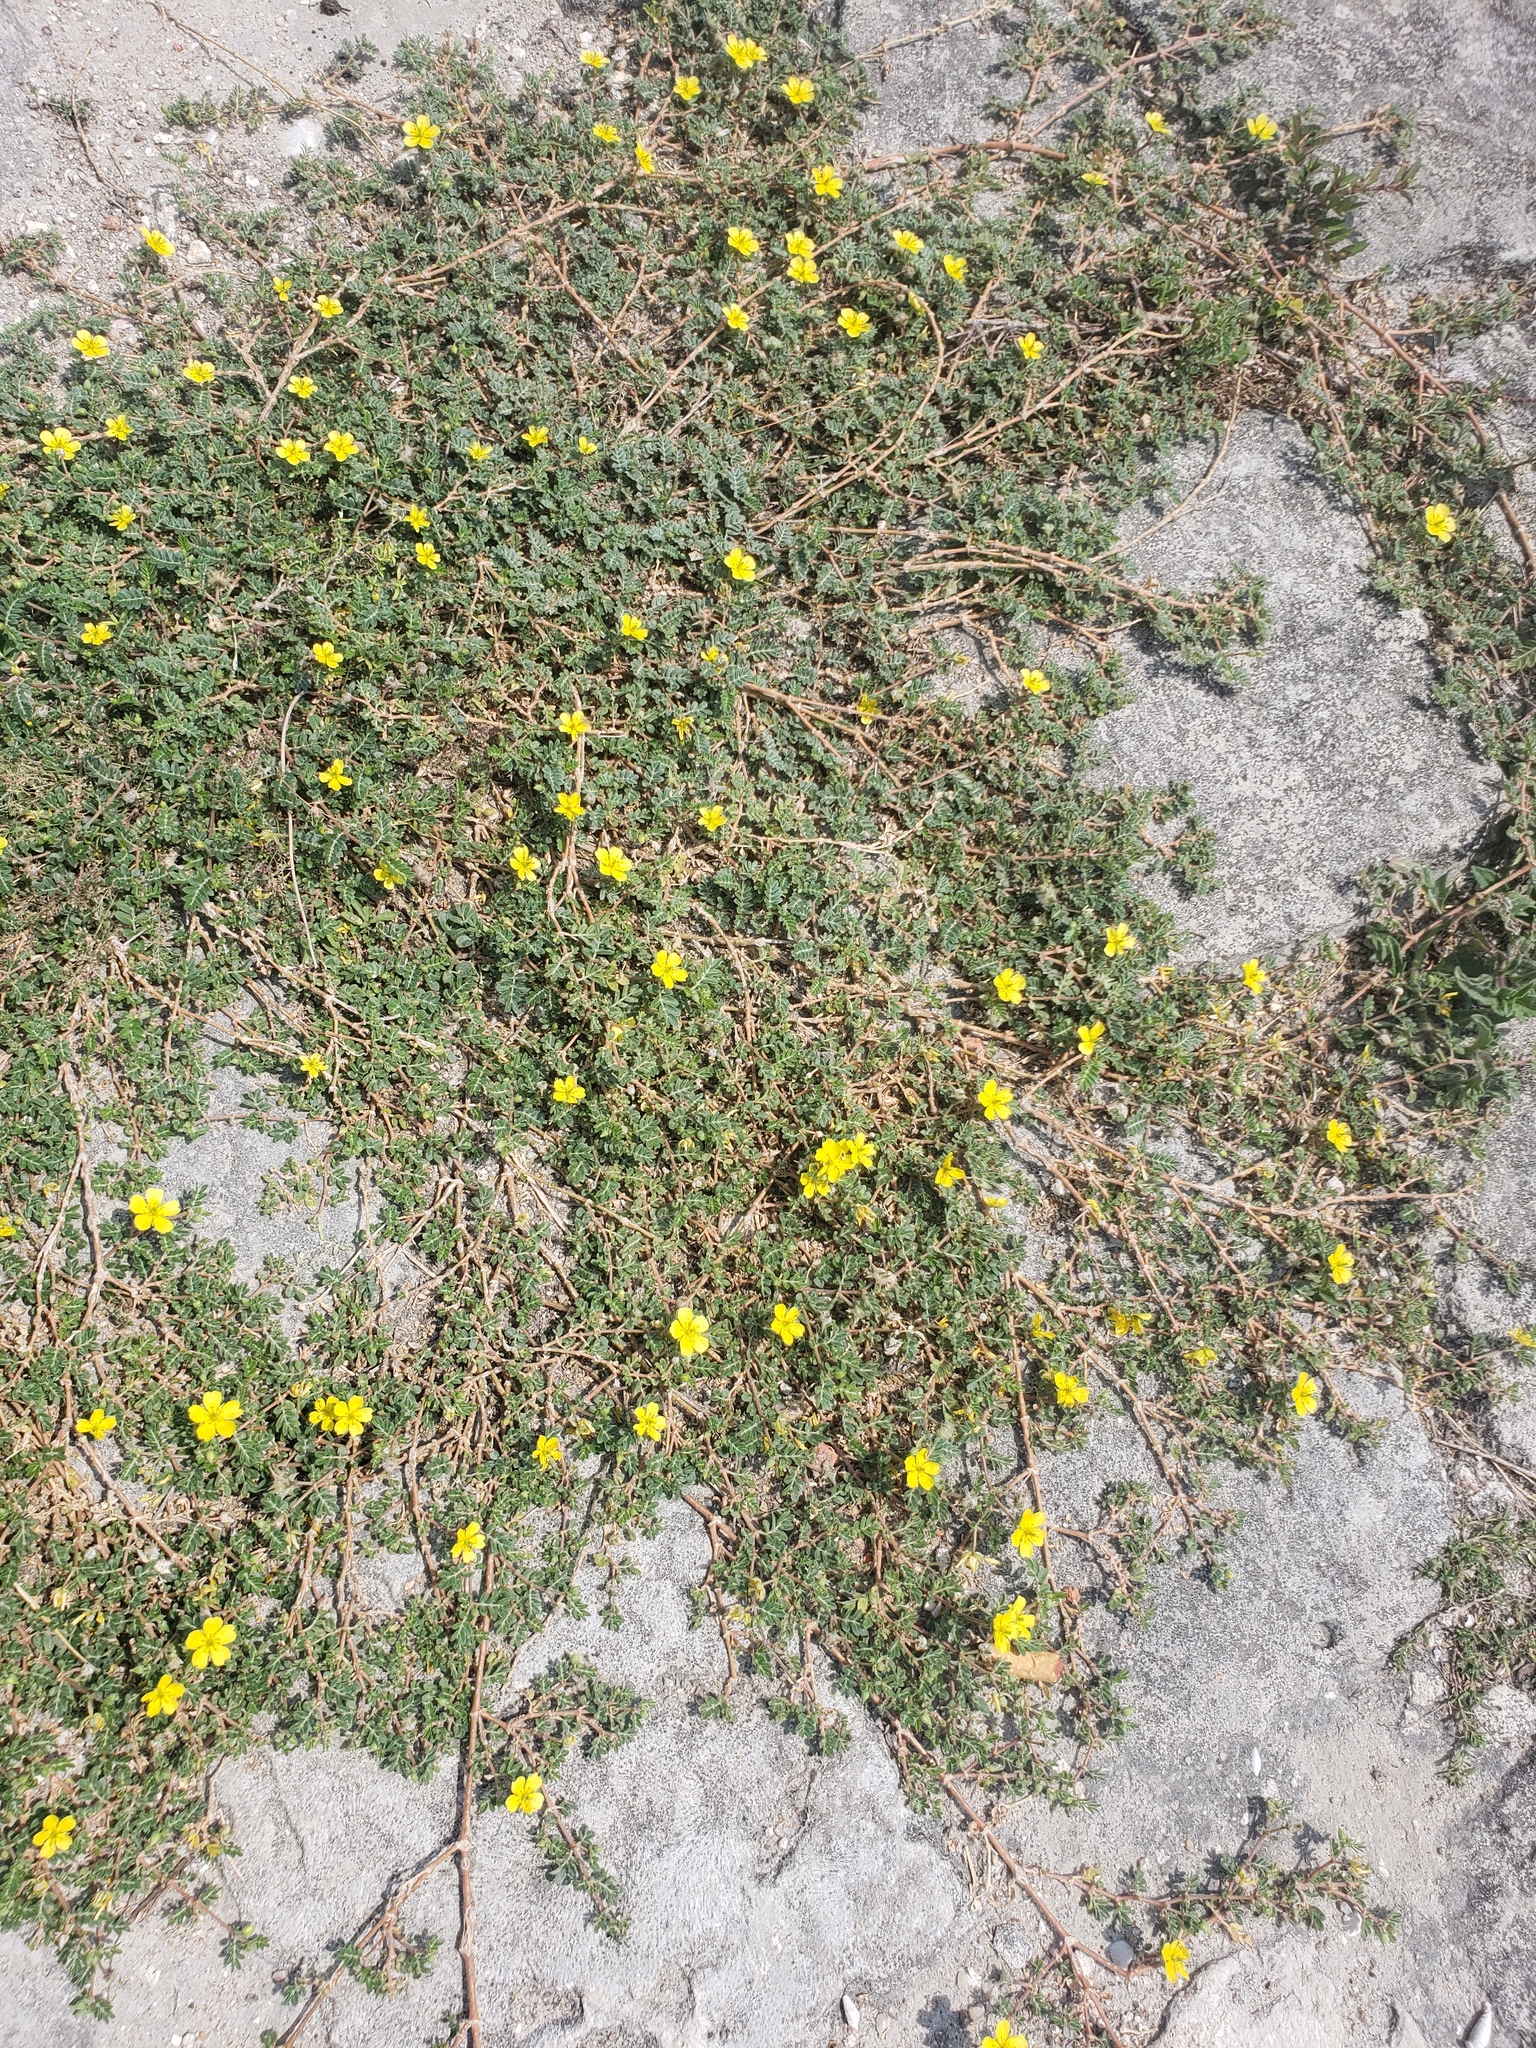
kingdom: Plantae
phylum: Tracheophyta
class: Magnoliopsida
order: Zygophyllales
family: Zygophyllaceae
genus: Tribulus
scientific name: Tribulus terrestris
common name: Puncturevine
